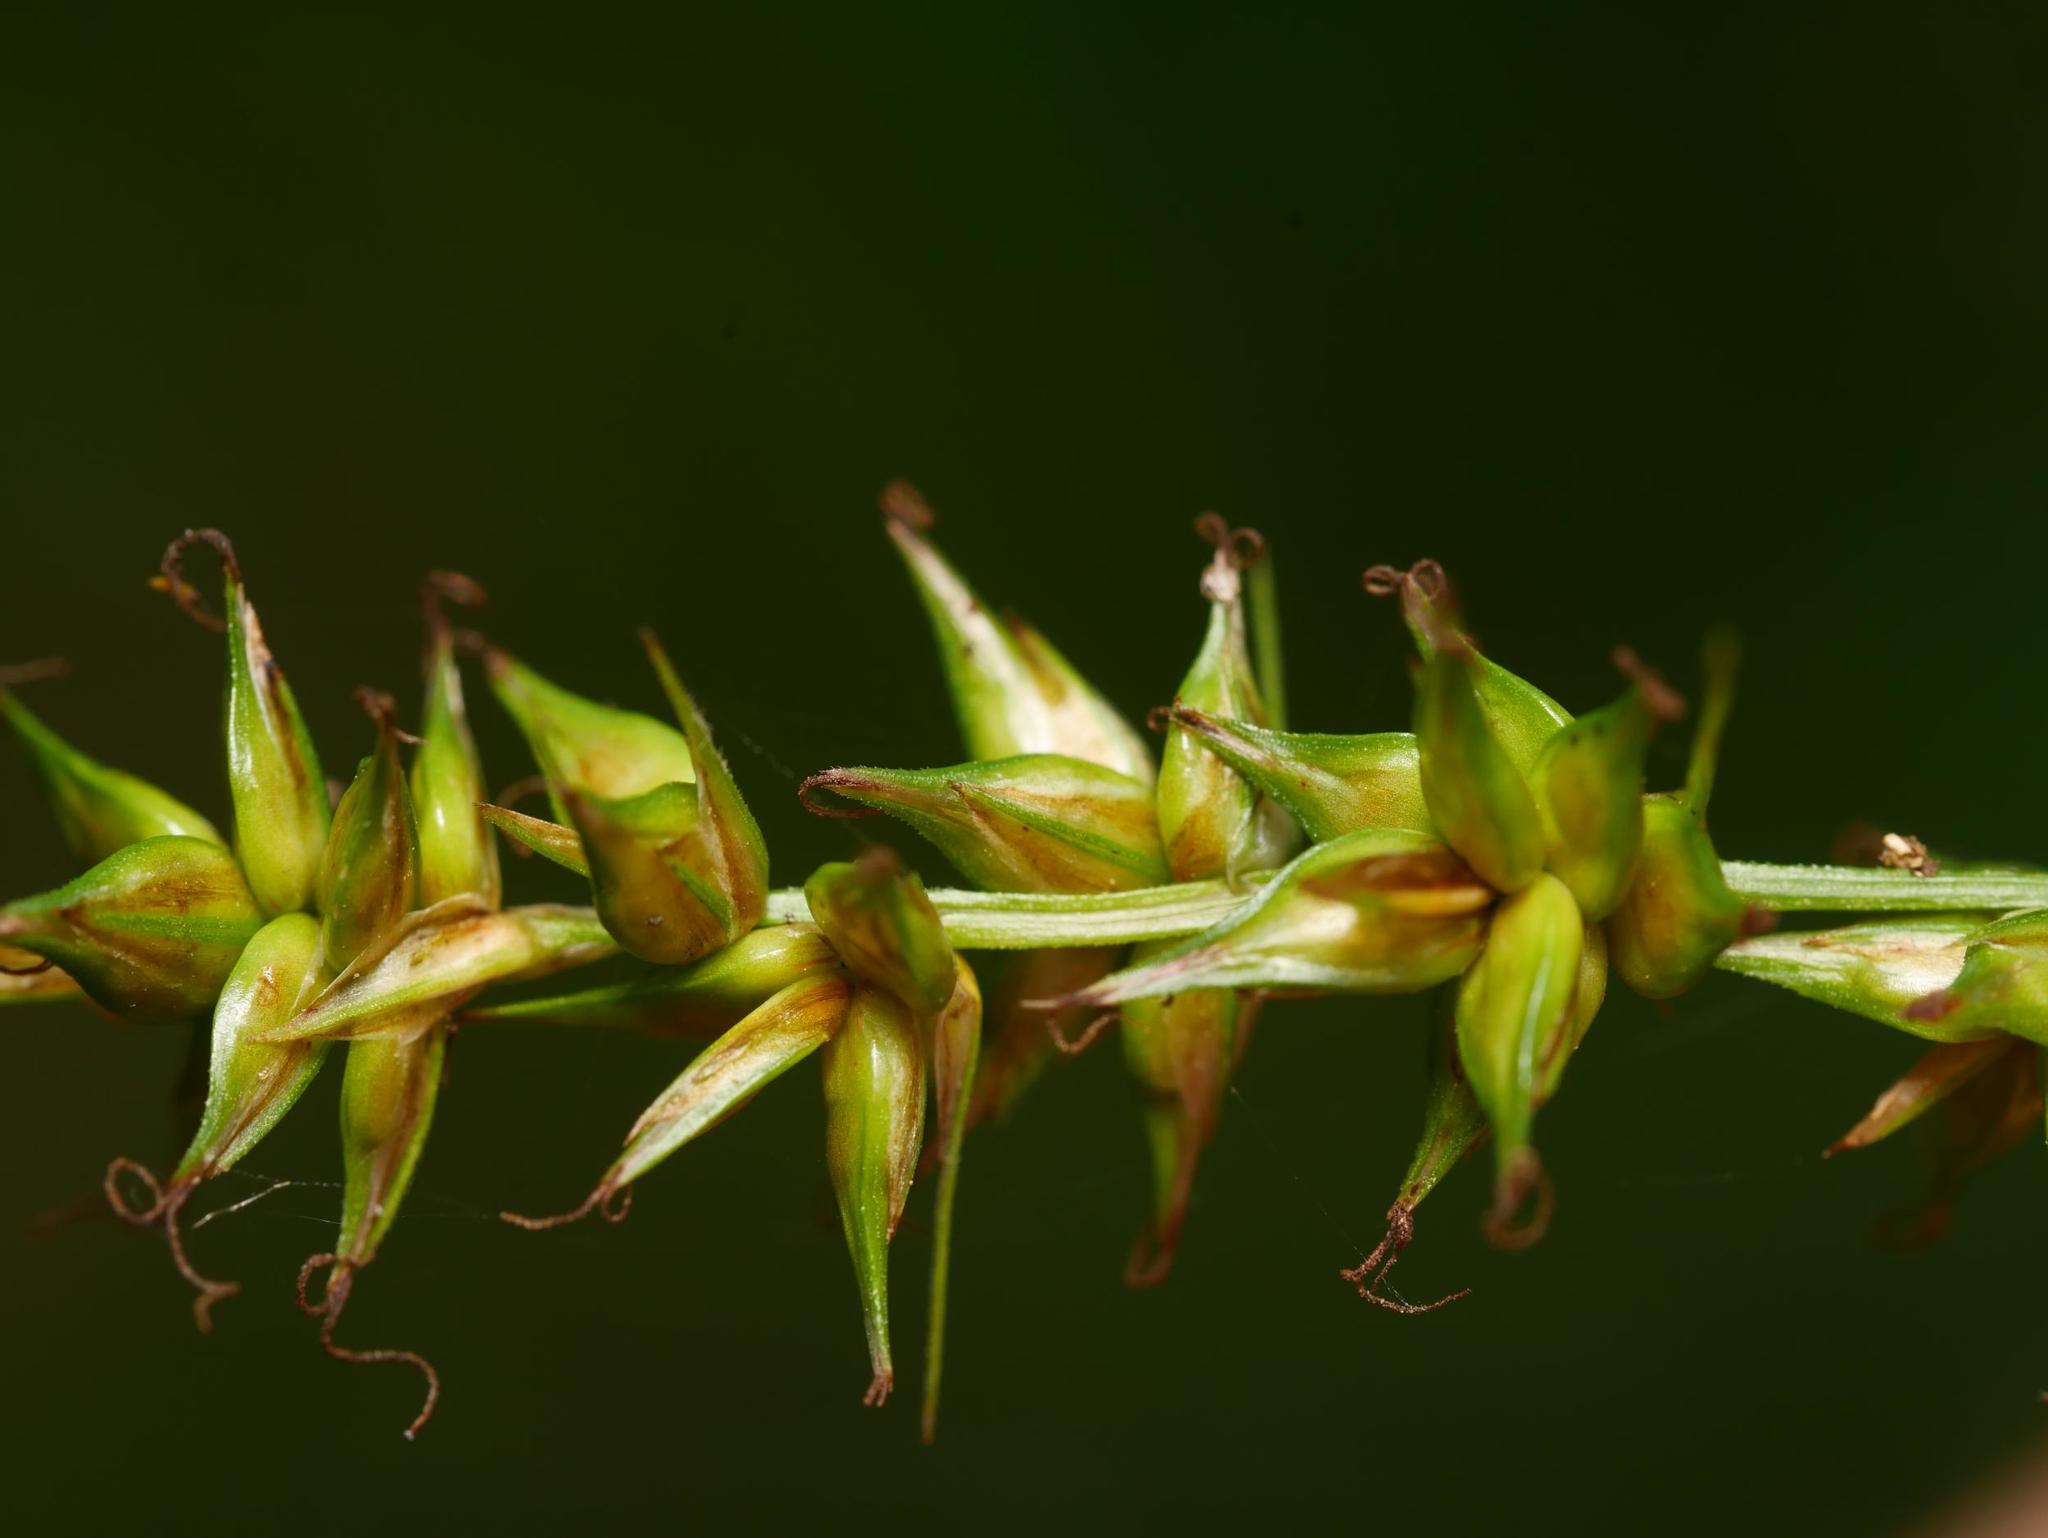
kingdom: Plantae
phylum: Tracheophyta
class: Liliopsida
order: Poales
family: Cyperaceae
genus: Carex
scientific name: Carex spicata
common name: Spiked sedge
